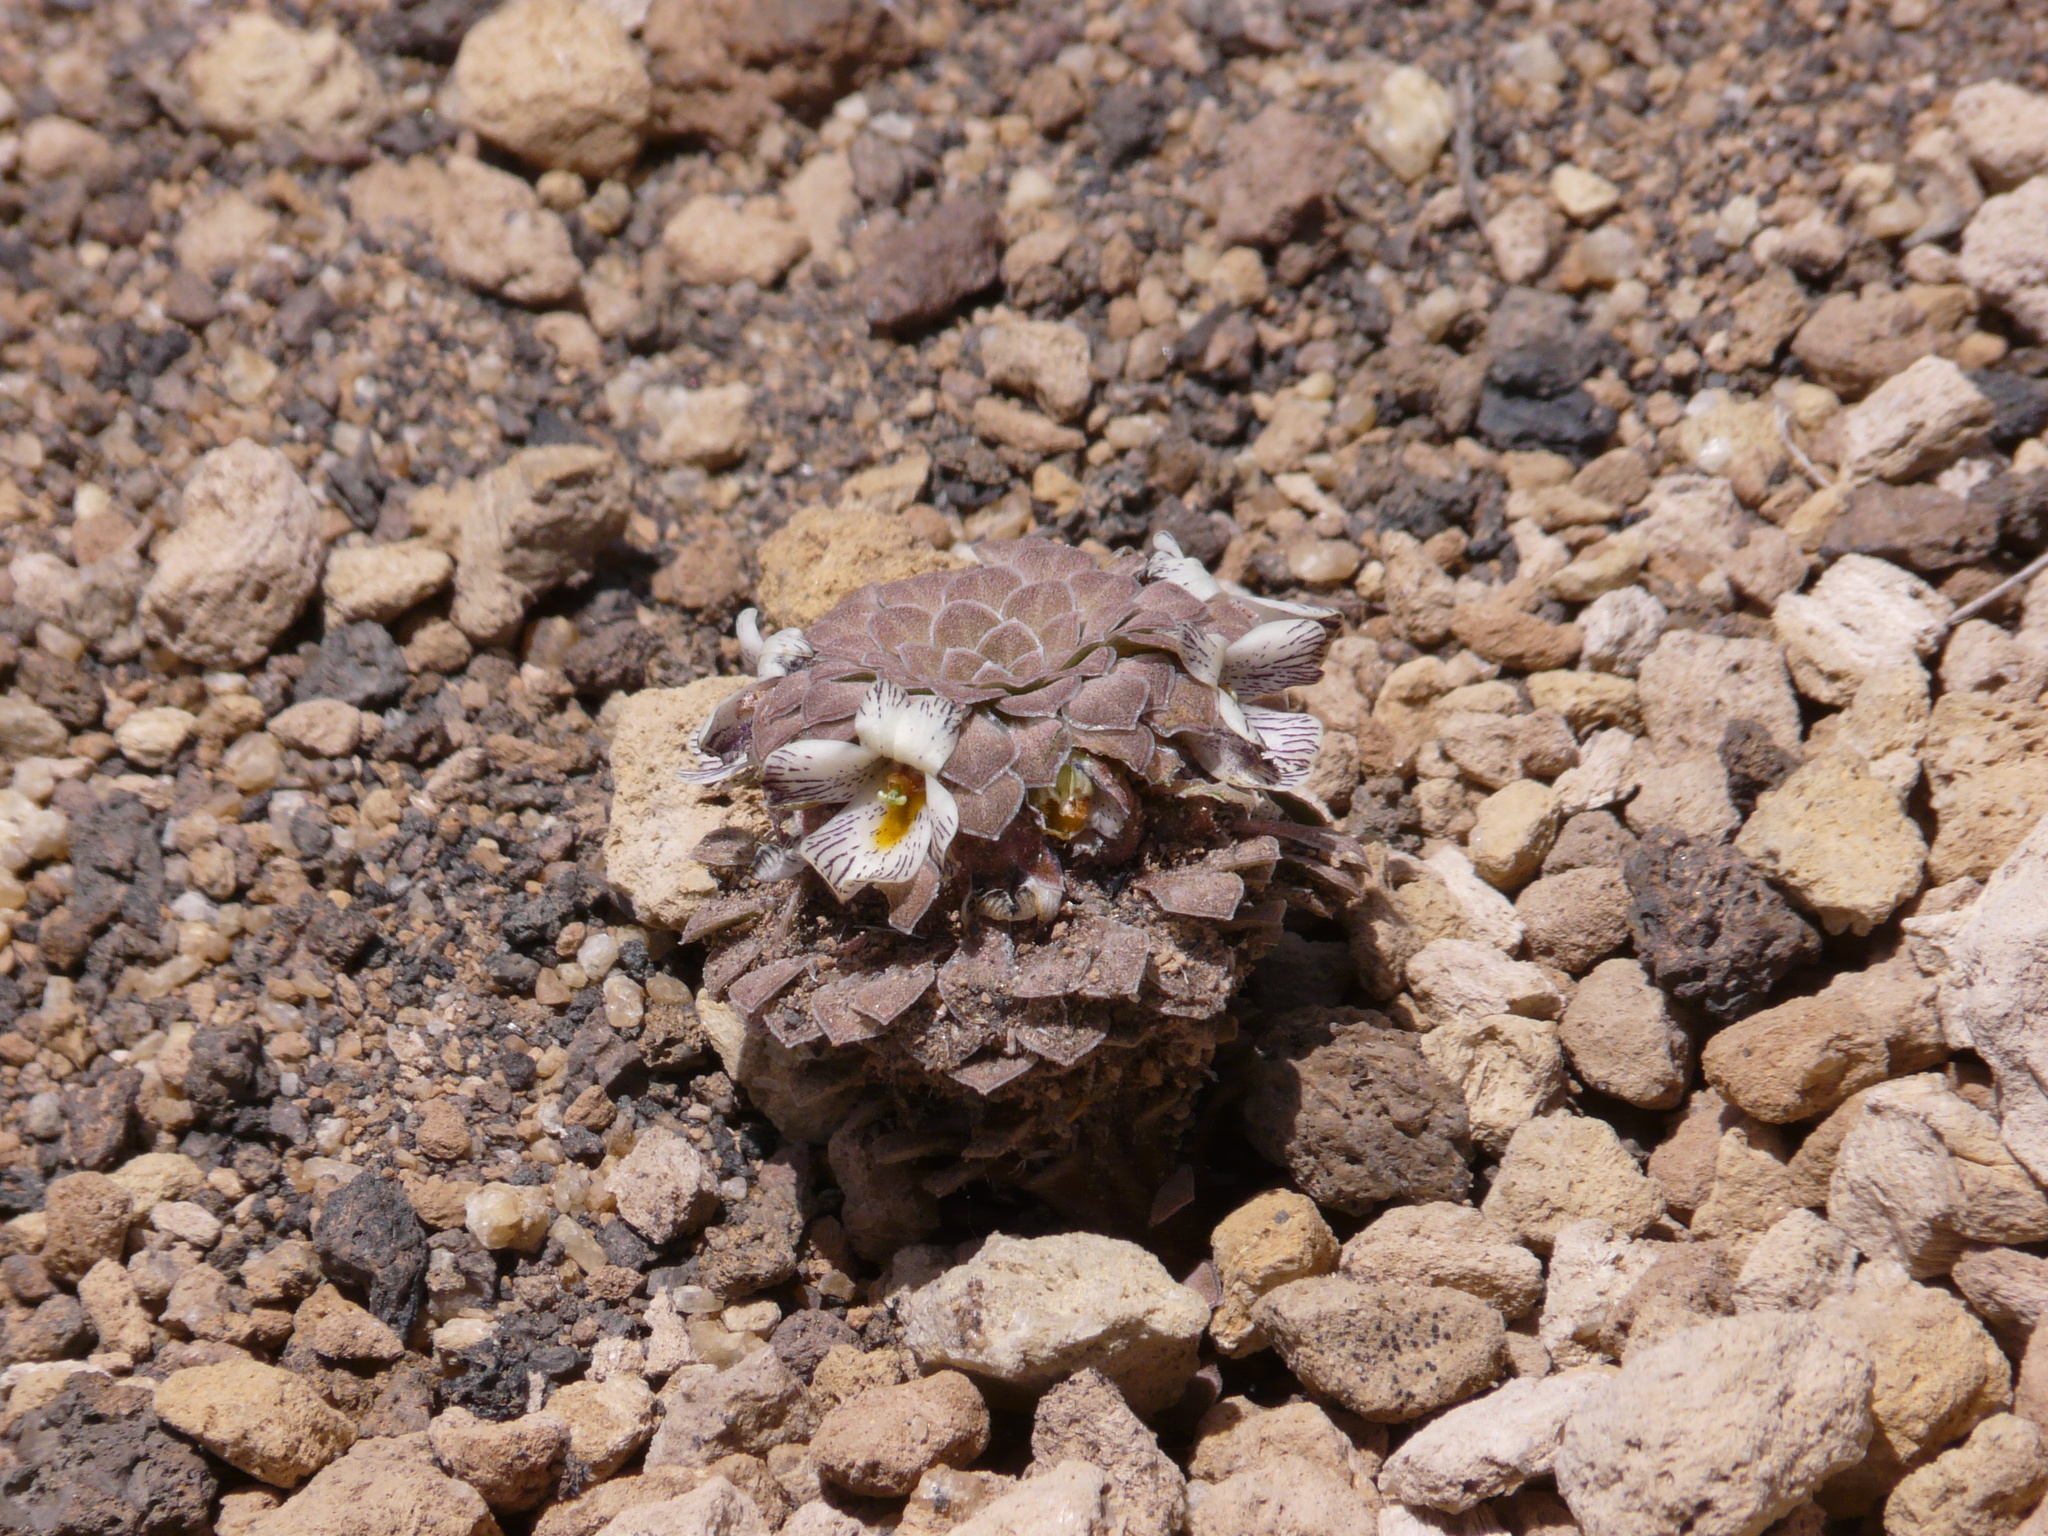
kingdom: Plantae
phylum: Tracheophyta
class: Magnoliopsida
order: Malpighiales
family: Violaceae
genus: Viola
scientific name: Viola pachysoma
